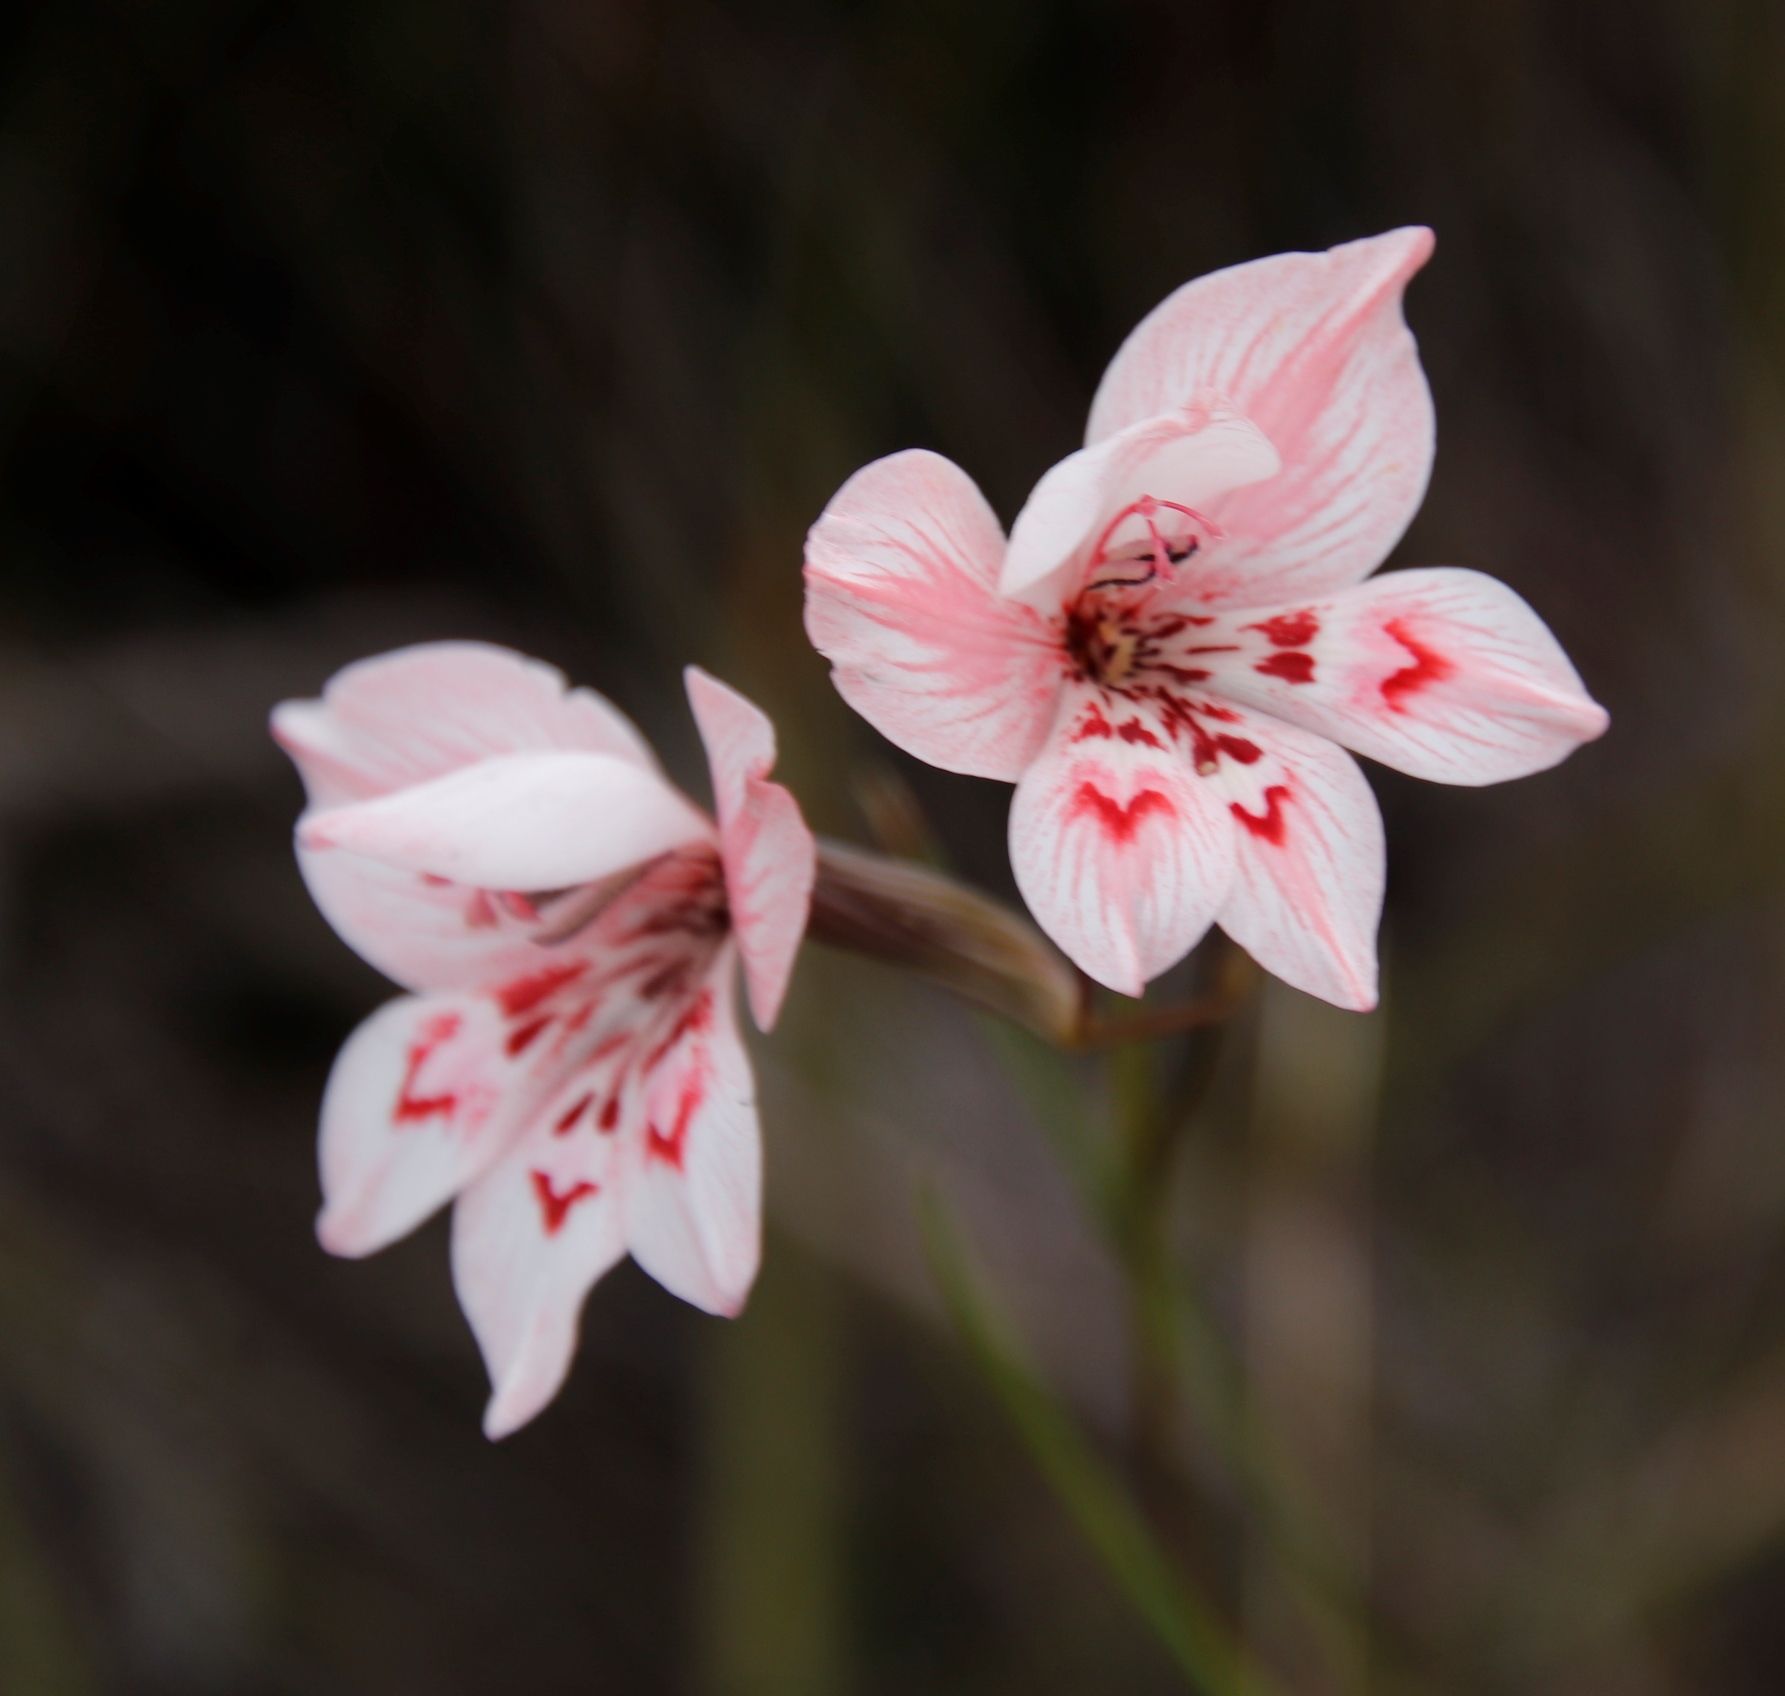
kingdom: Plantae
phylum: Tracheophyta
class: Liliopsida
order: Asparagales
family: Iridaceae
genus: Gladiolus
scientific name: Gladiolus debilis
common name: Painted-lady
